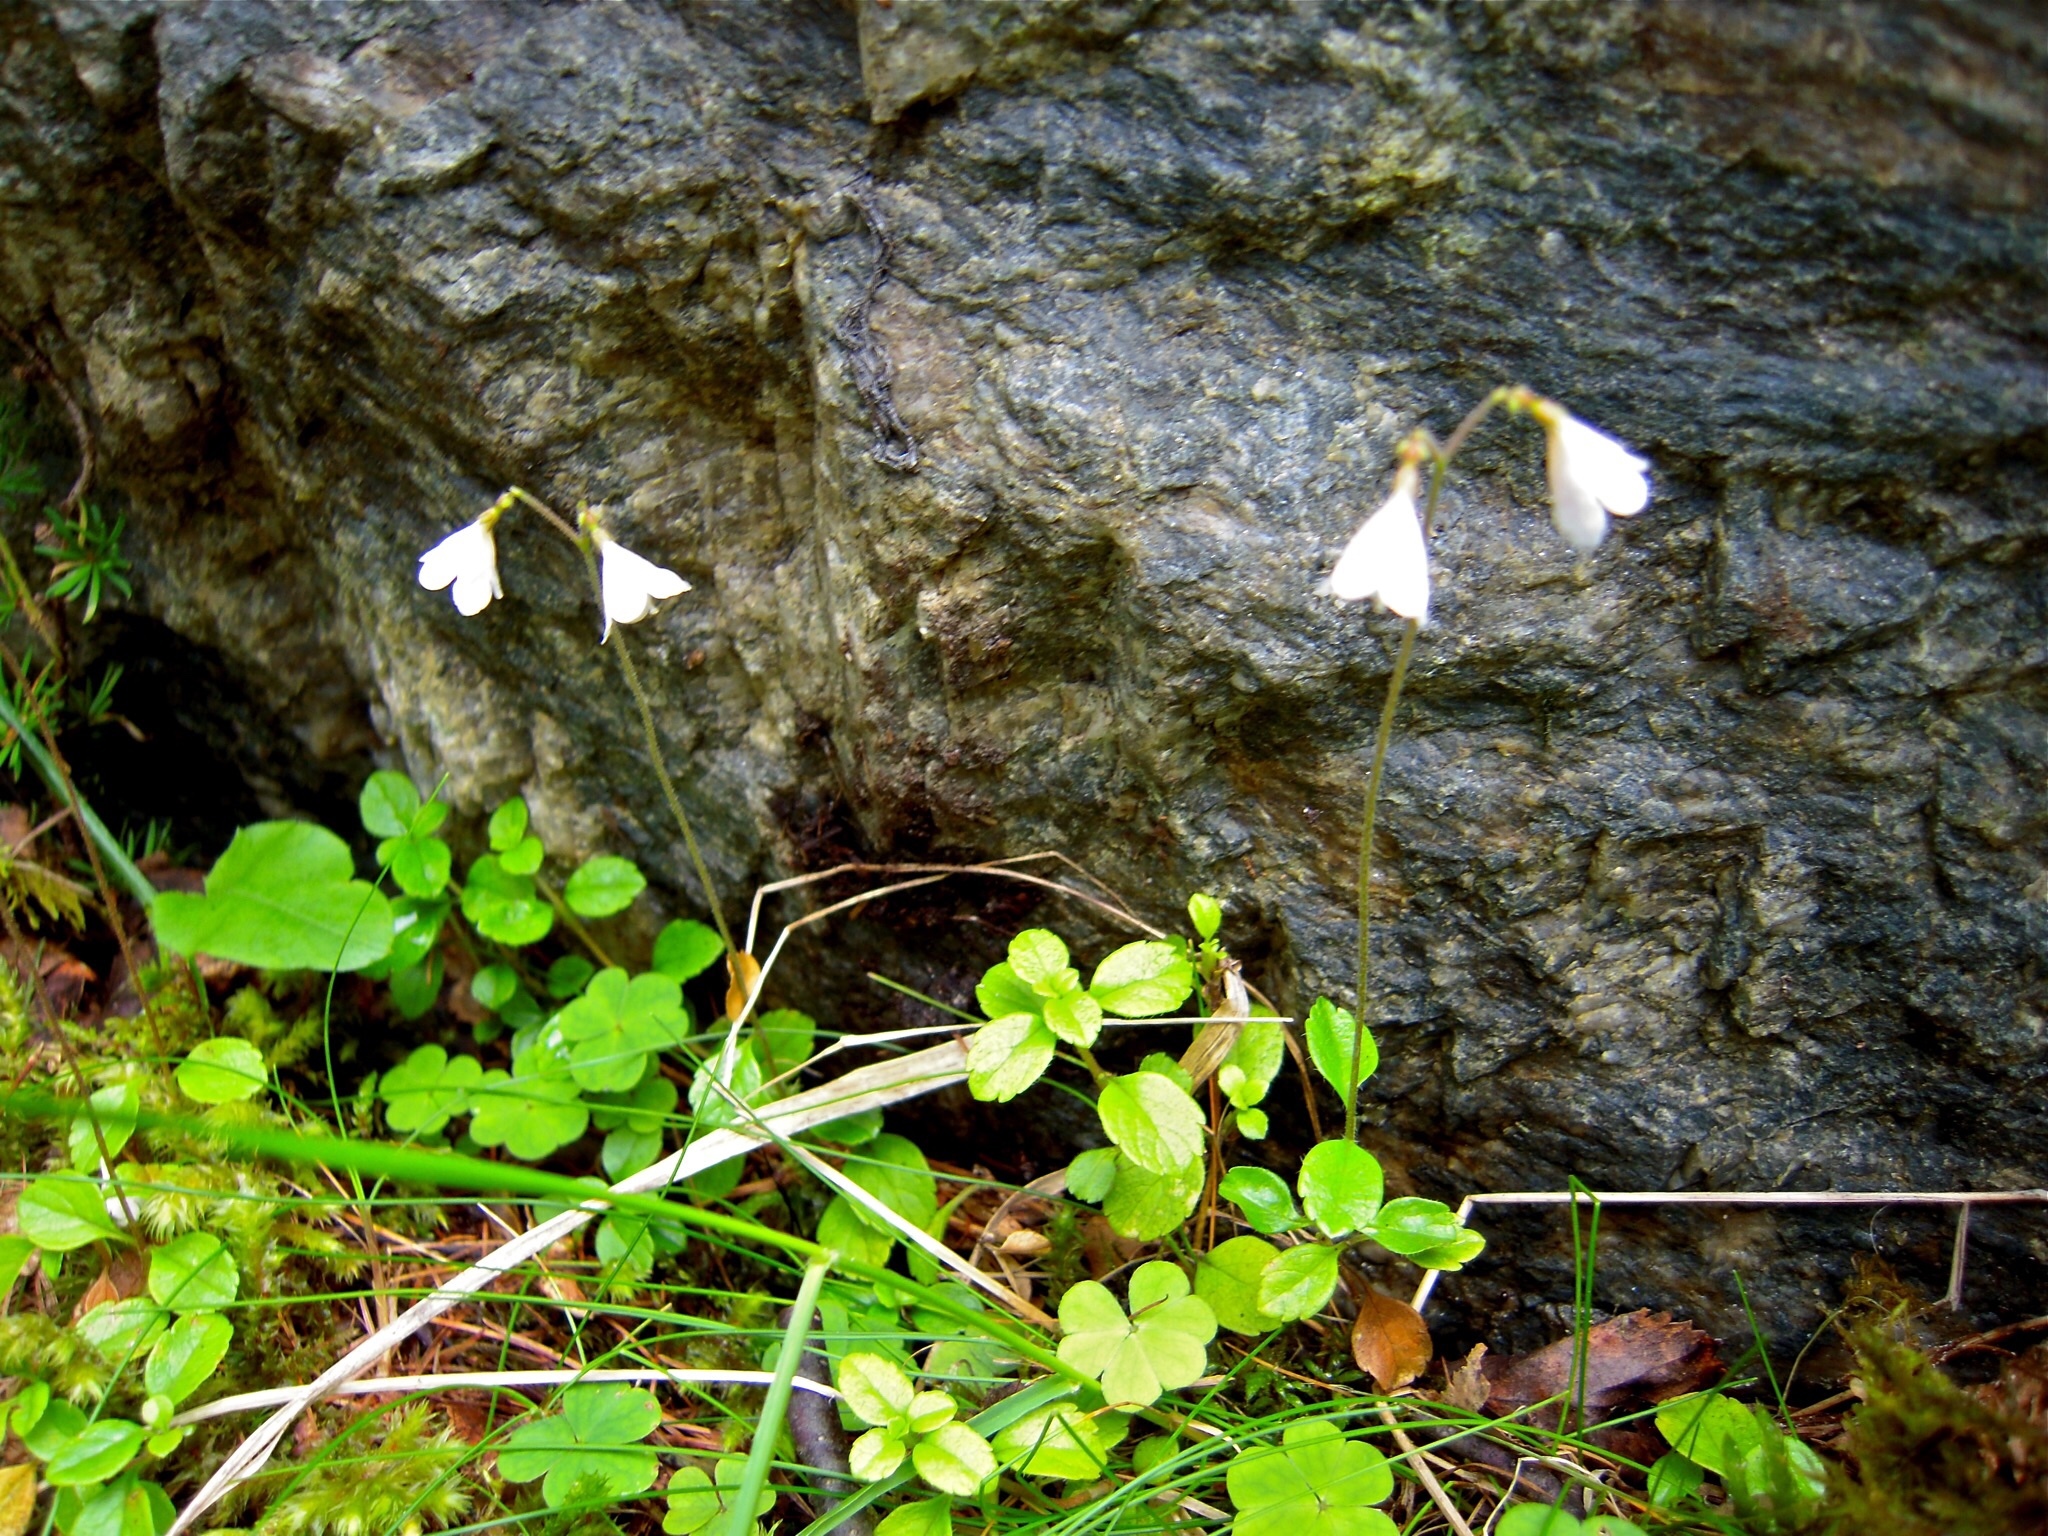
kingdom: Plantae
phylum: Tracheophyta
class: Magnoliopsida
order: Dipsacales
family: Caprifoliaceae
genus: Linnaea
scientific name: Linnaea borealis
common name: Twinflower
